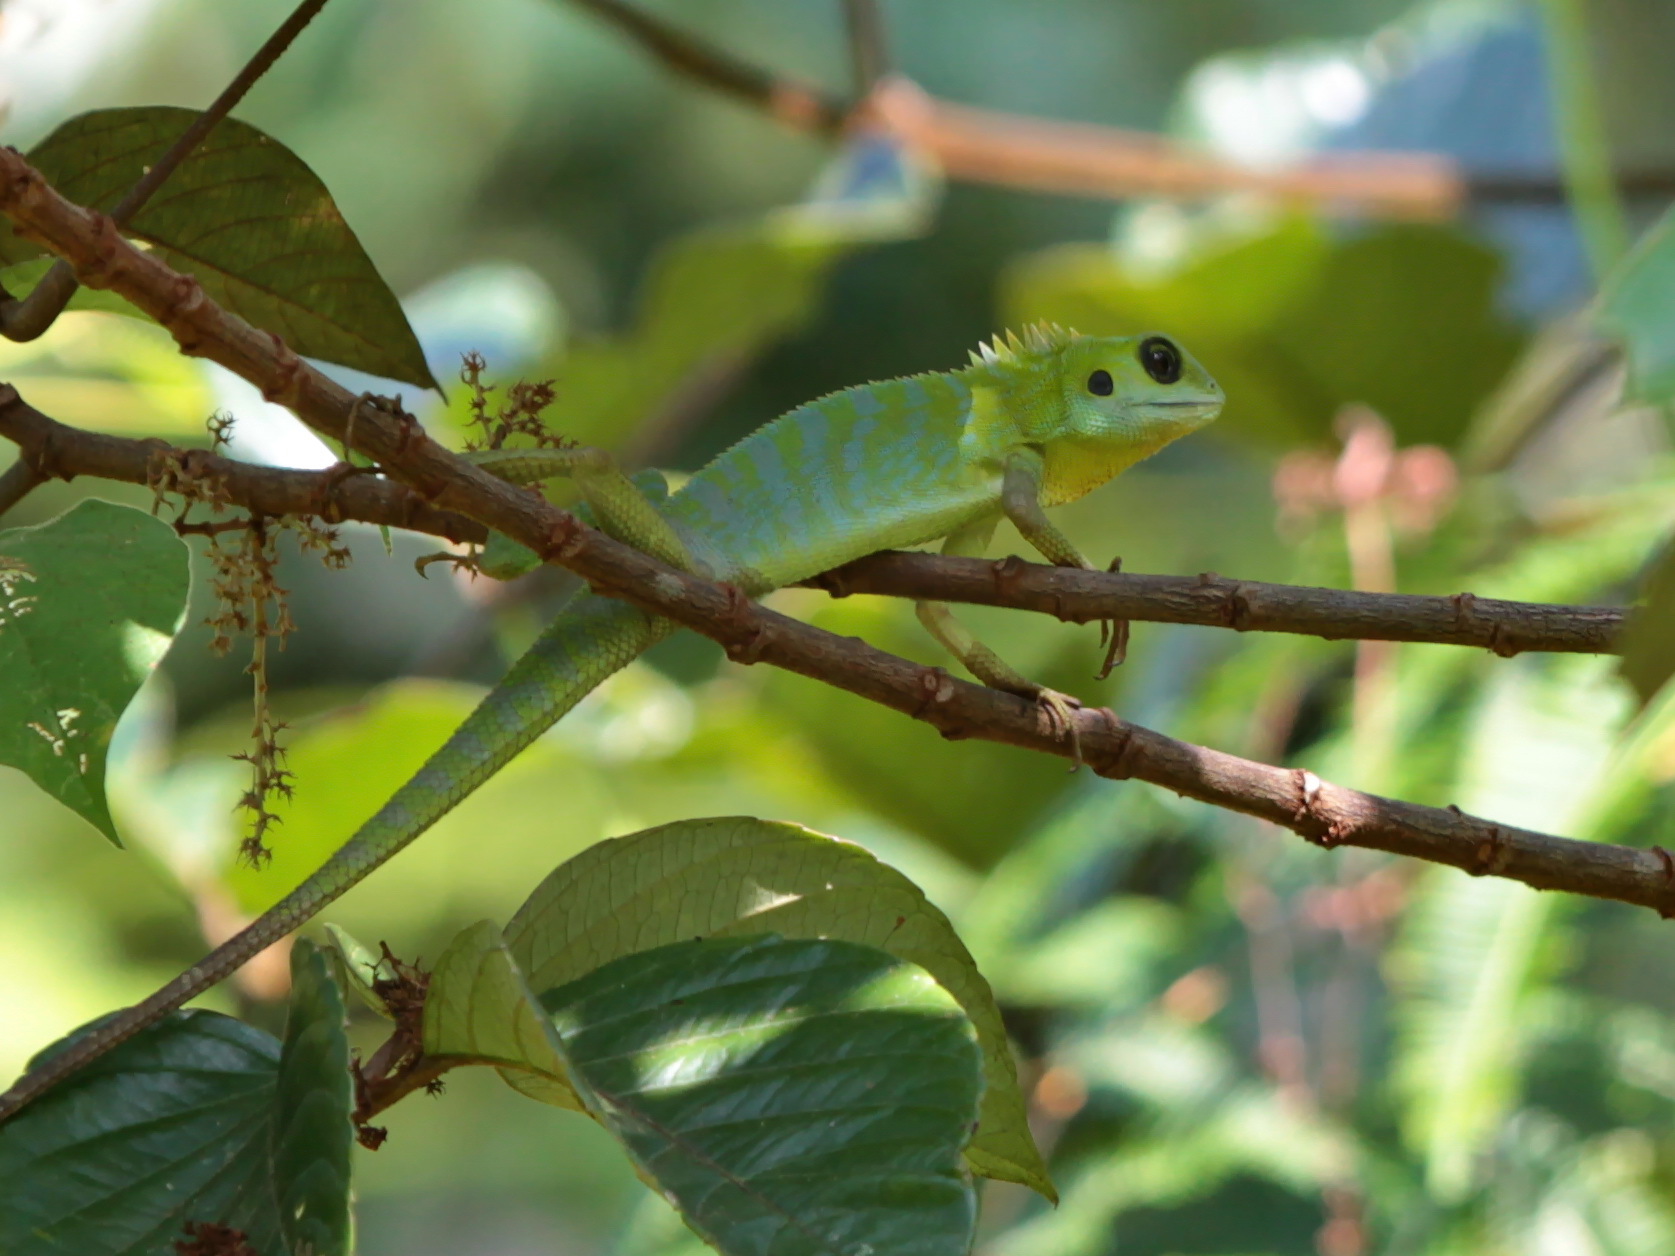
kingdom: Animalia
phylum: Chordata
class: Squamata
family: Agamidae
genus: Bronchocela
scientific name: Bronchocela cristatella
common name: Green crested lizard
